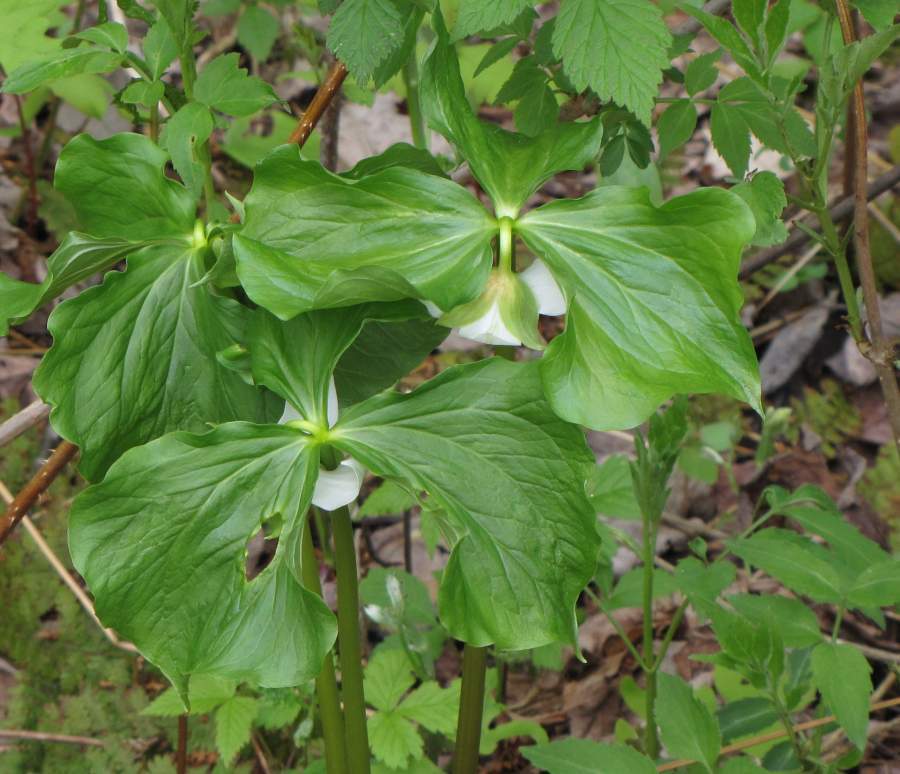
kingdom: Plantae
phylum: Tracheophyta
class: Liliopsida
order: Liliales
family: Melanthiaceae
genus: Trillium
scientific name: Trillium cernuum
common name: Nodding trillium
